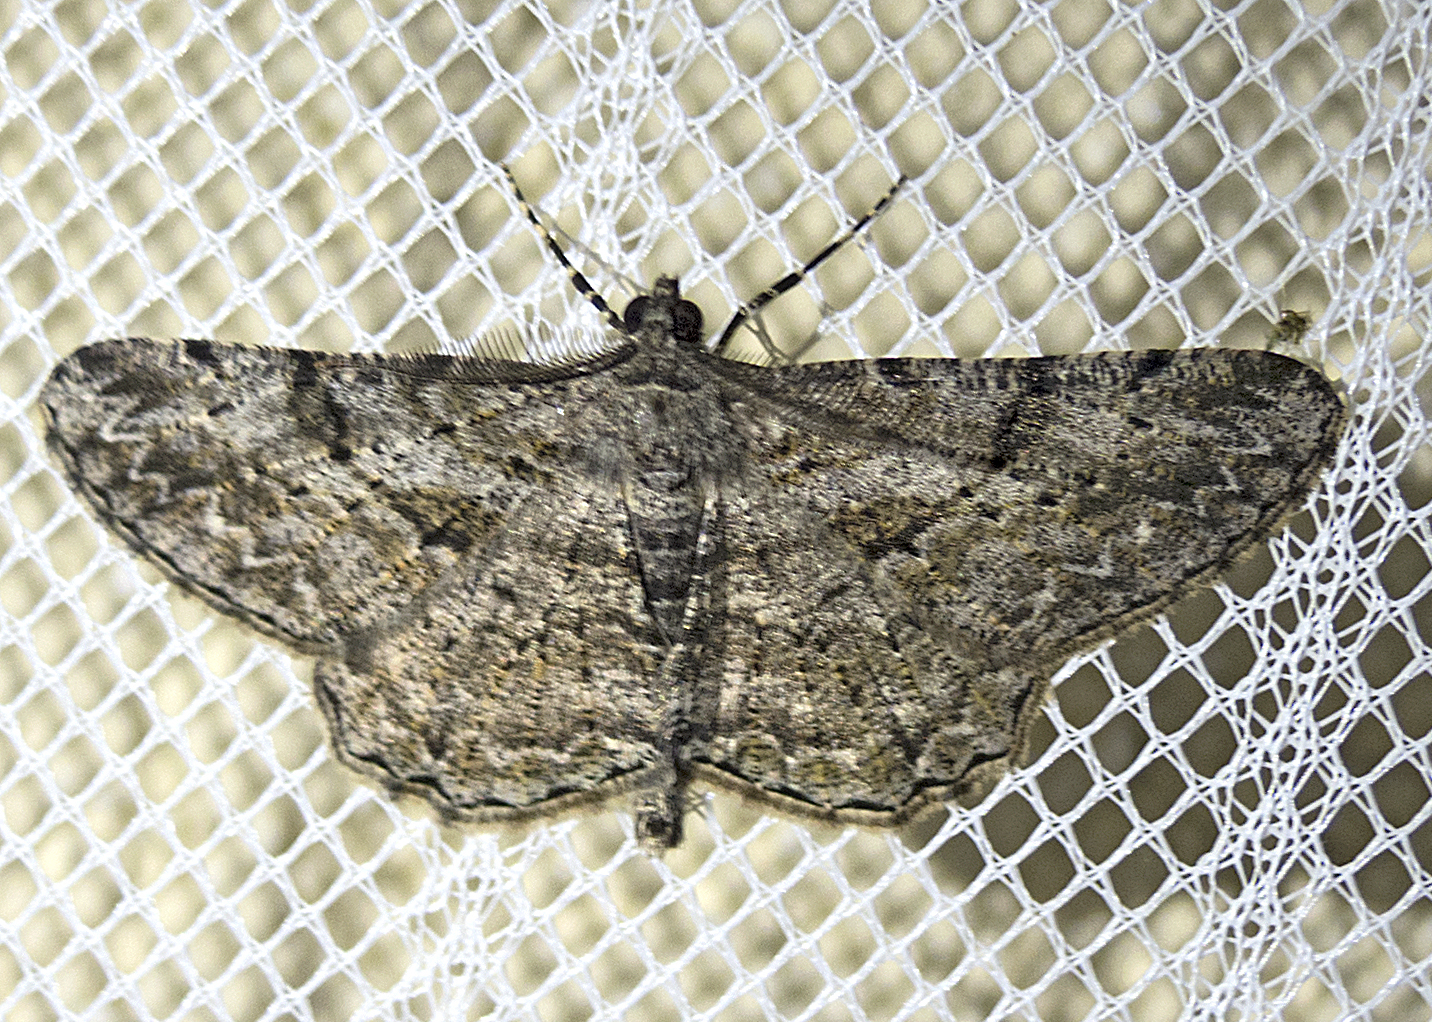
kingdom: Animalia
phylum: Arthropoda
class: Insecta
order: Lepidoptera
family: Geometridae
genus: Peribatodes
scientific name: Peribatodes rhomboidaria
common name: Willow beauty
